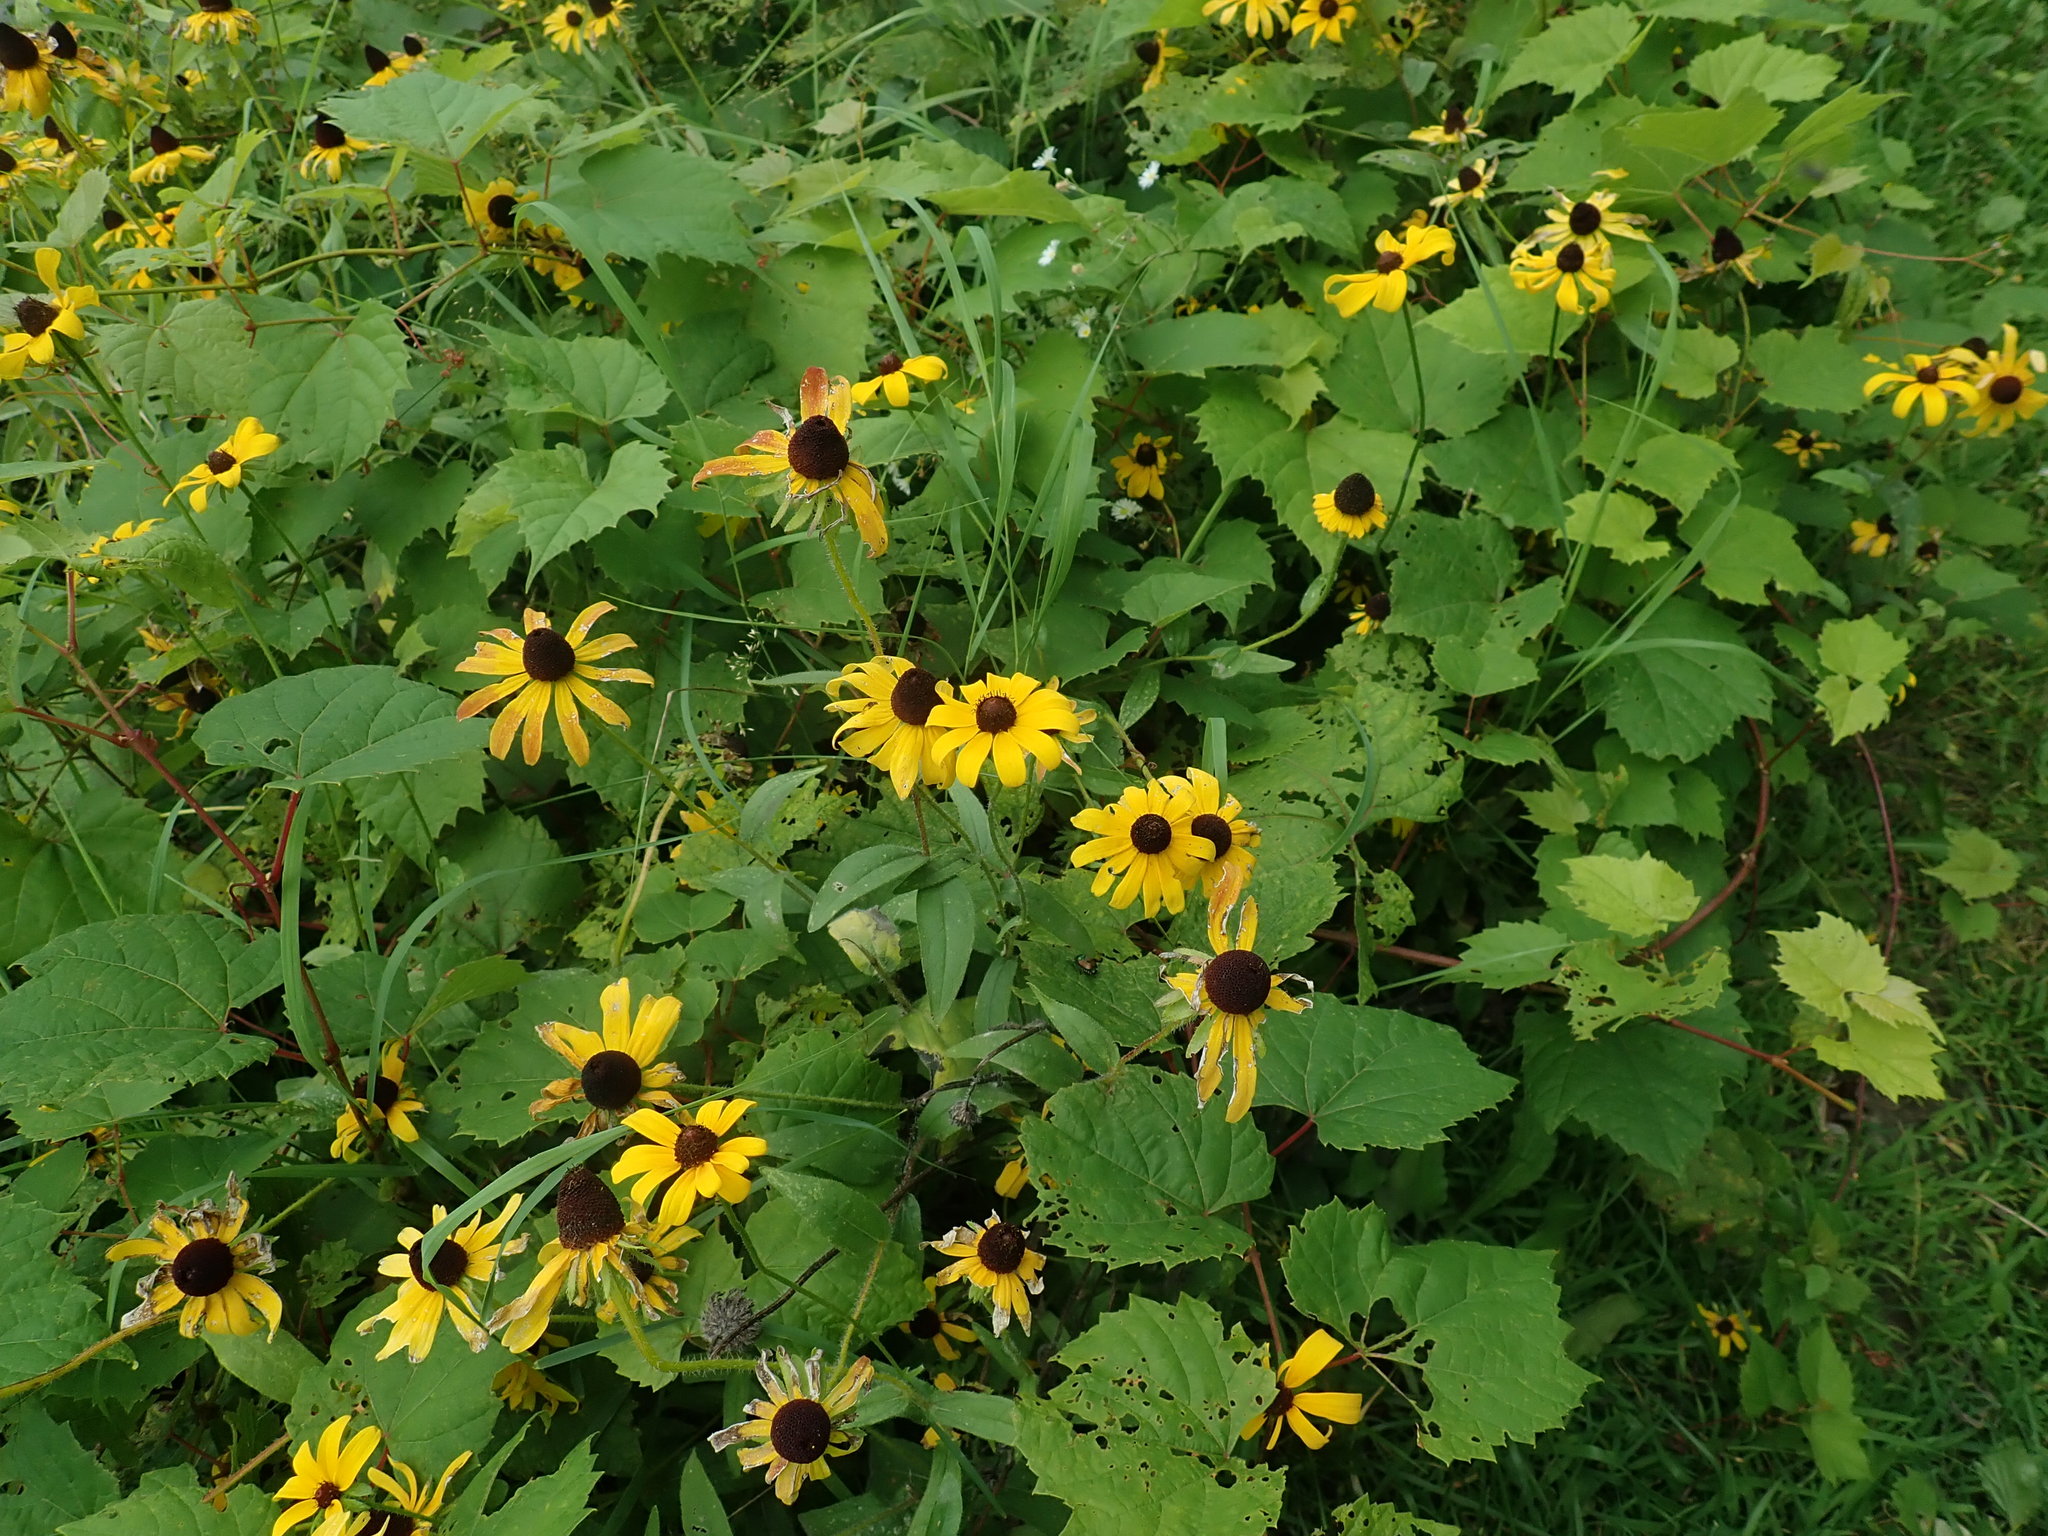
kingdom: Plantae
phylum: Tracheophyta
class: Magnoliopsida
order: Asterales
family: Asteraceae
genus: Rudbeckia
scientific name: Rudbeckia hirta
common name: Black-eyed-susan
